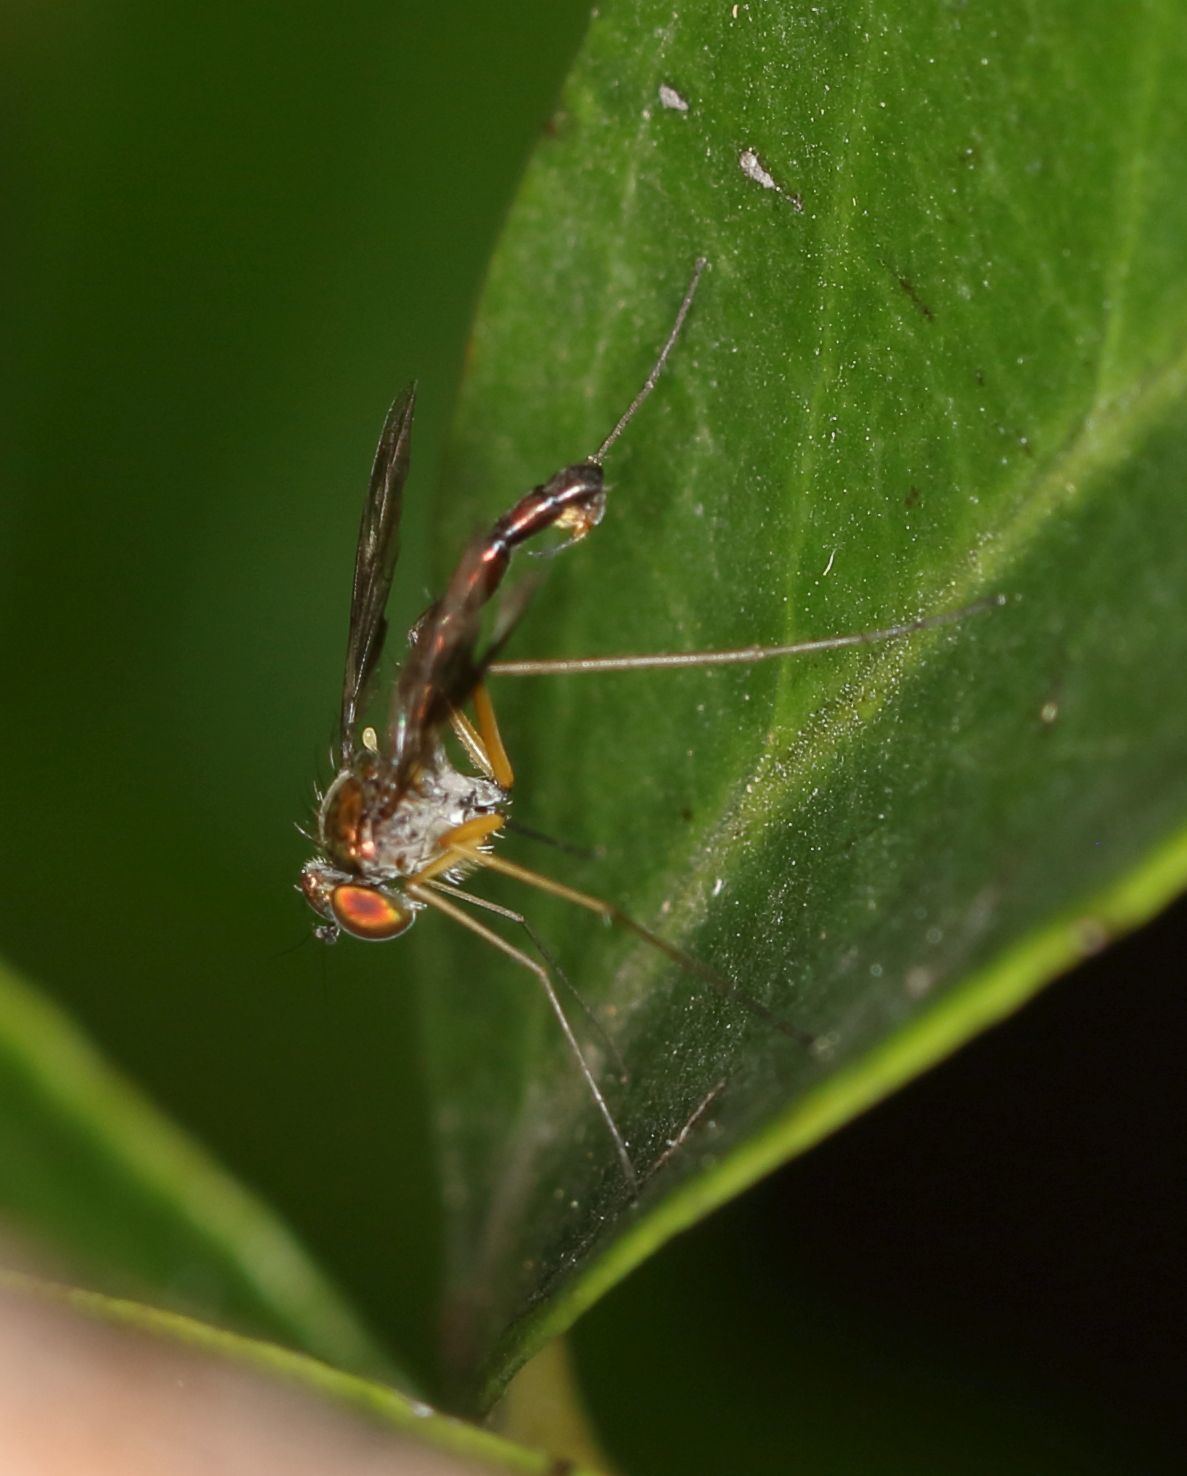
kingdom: Animalia
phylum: Arthropoda
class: Insecta
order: Diptera
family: Dolichopodidae
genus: Amblypsilopus
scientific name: Amblypsilopus stuckenbergorum
